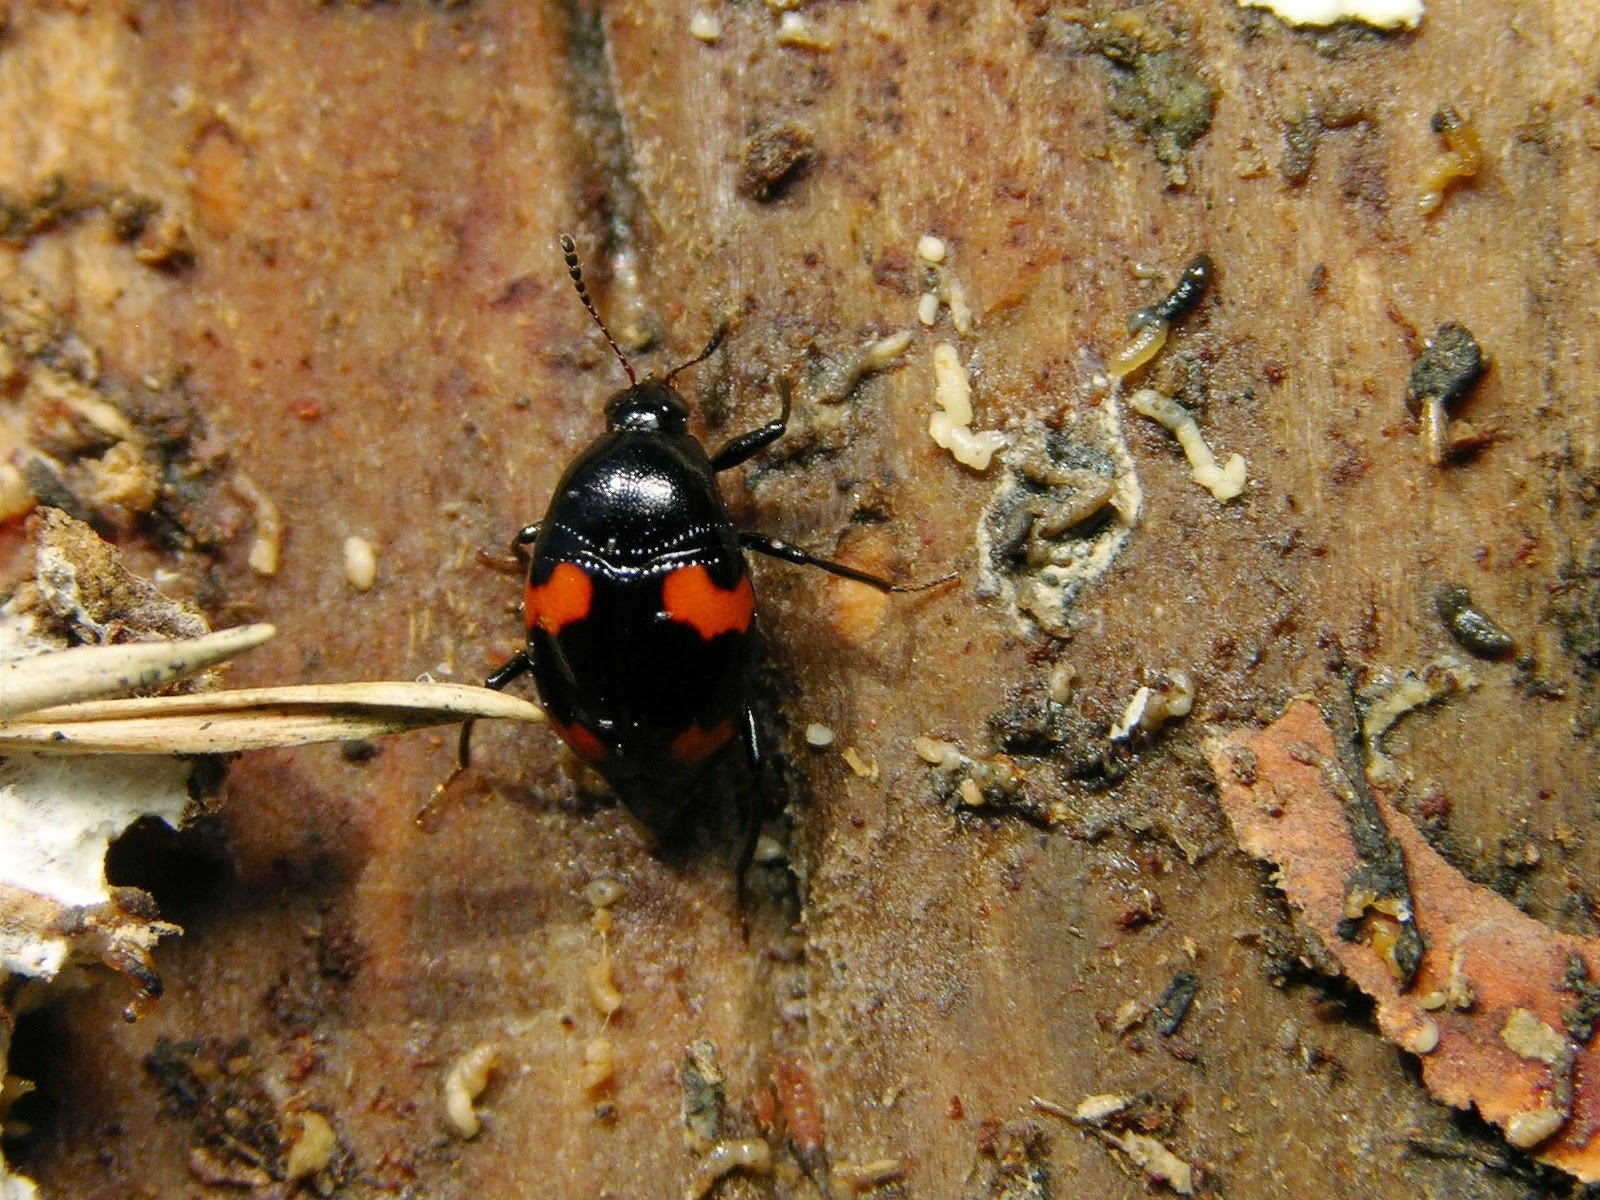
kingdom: Animalia
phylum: Arthropoda
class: Insecta
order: Coleoptera
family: Staphylinidae
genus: Scaphidium
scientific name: Scaphidium quadrimaculatum
